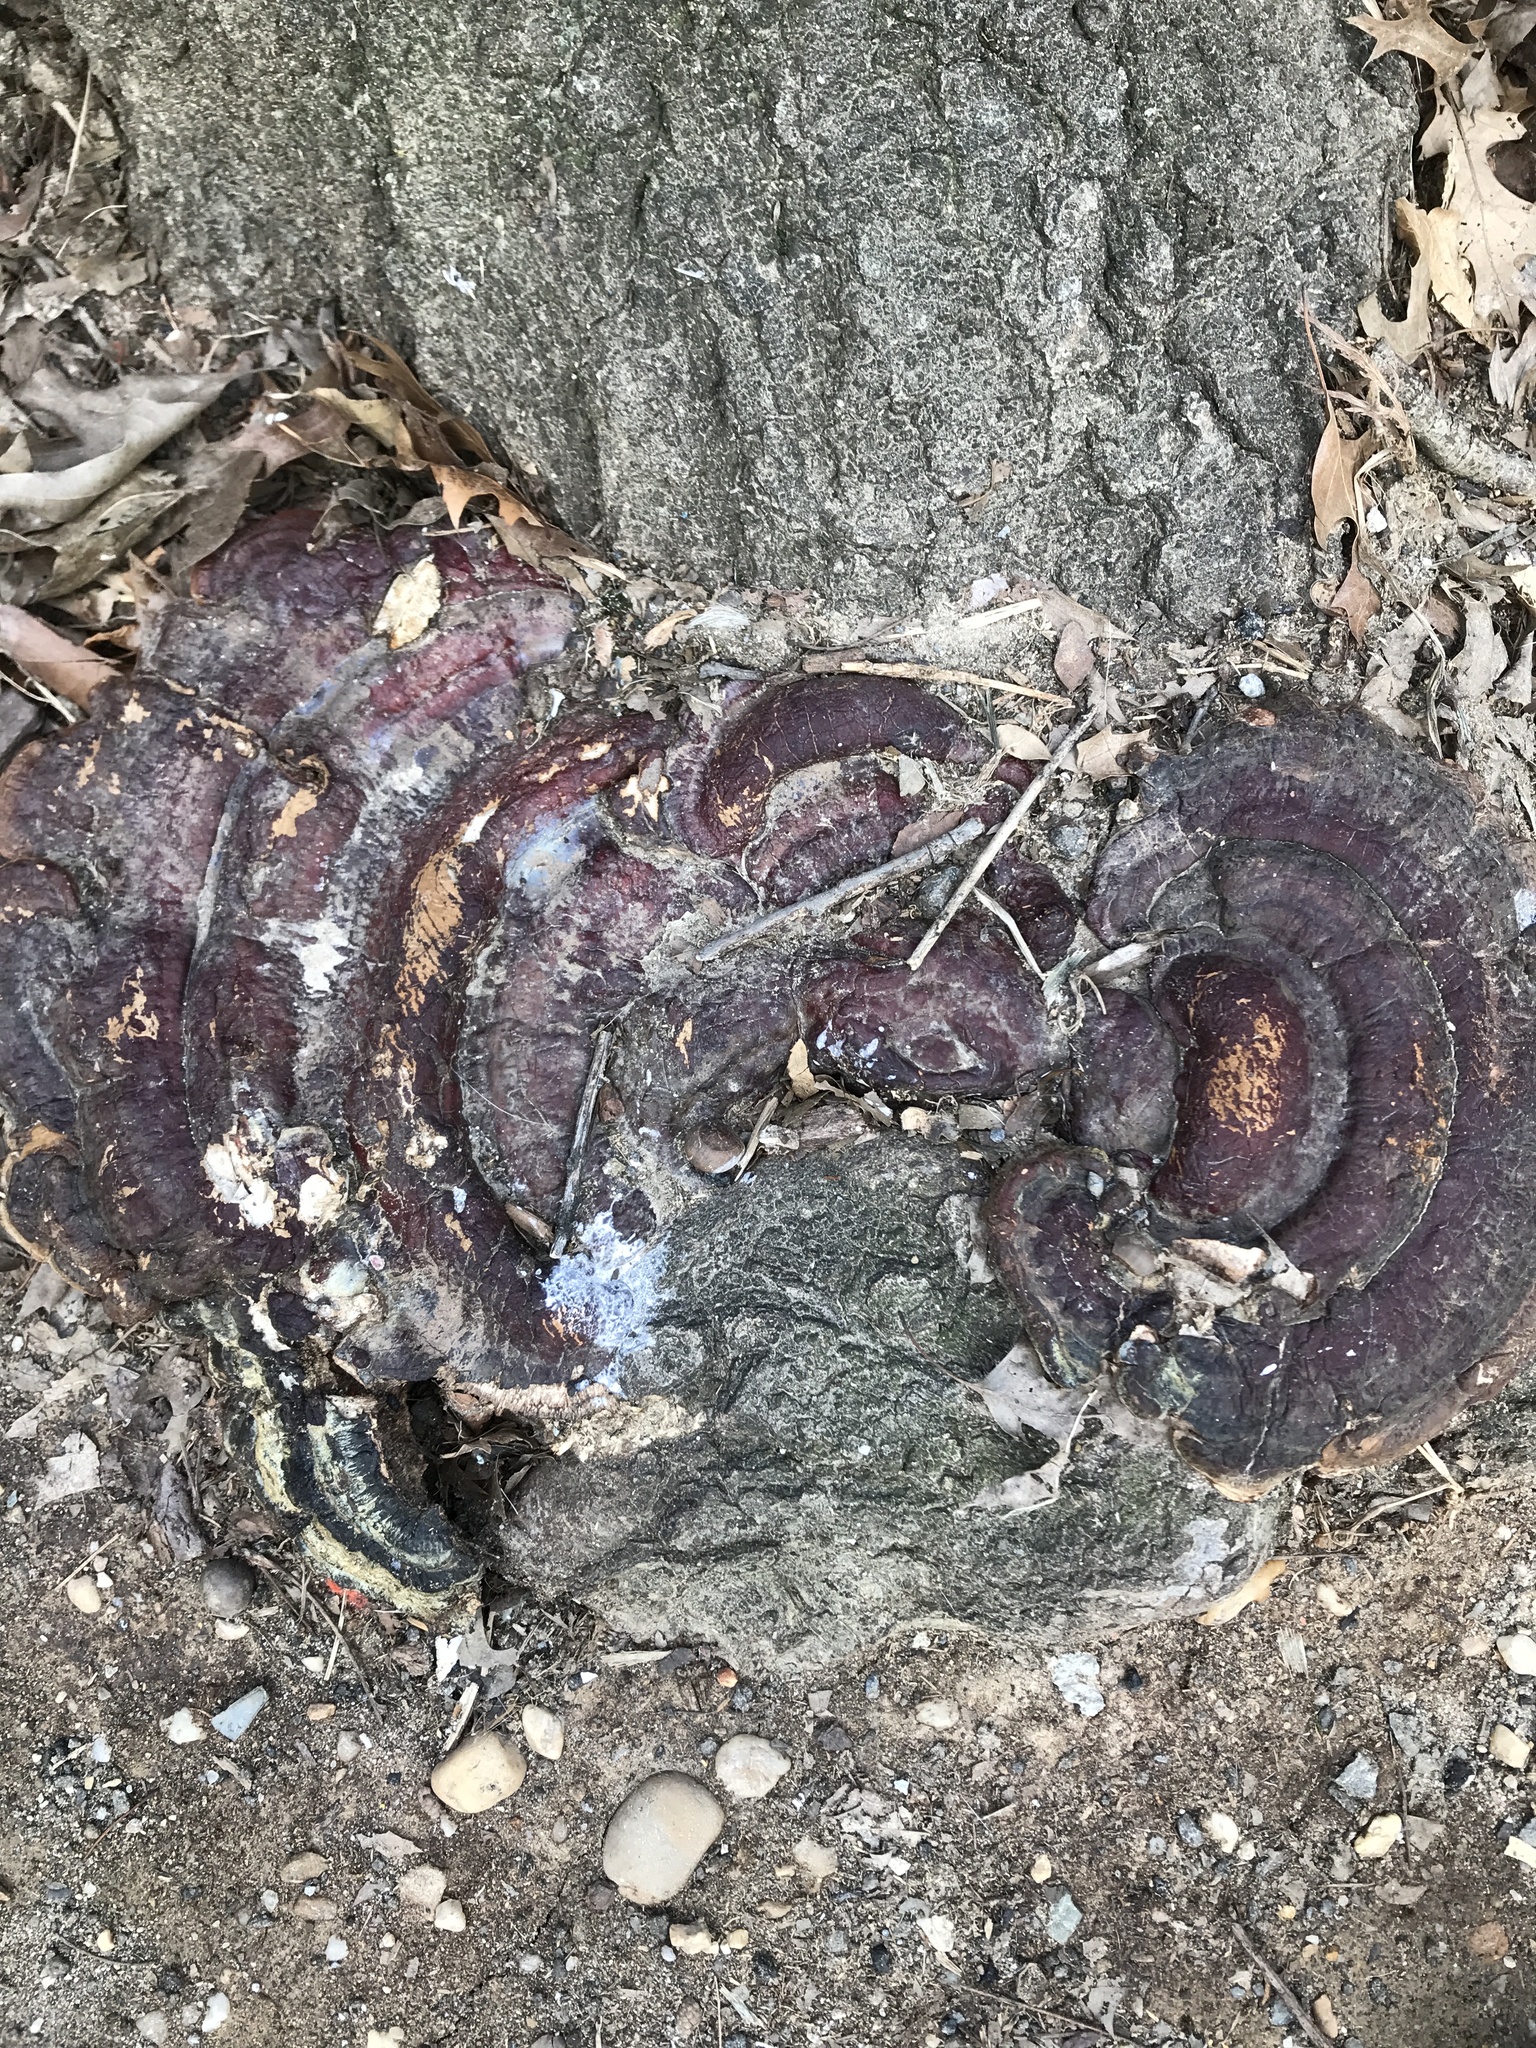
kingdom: Fungi
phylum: Basidiomycota
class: Agaricomycetes
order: Polyporales
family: Polyporaceae
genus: Ganoderma
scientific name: Ganoderma
